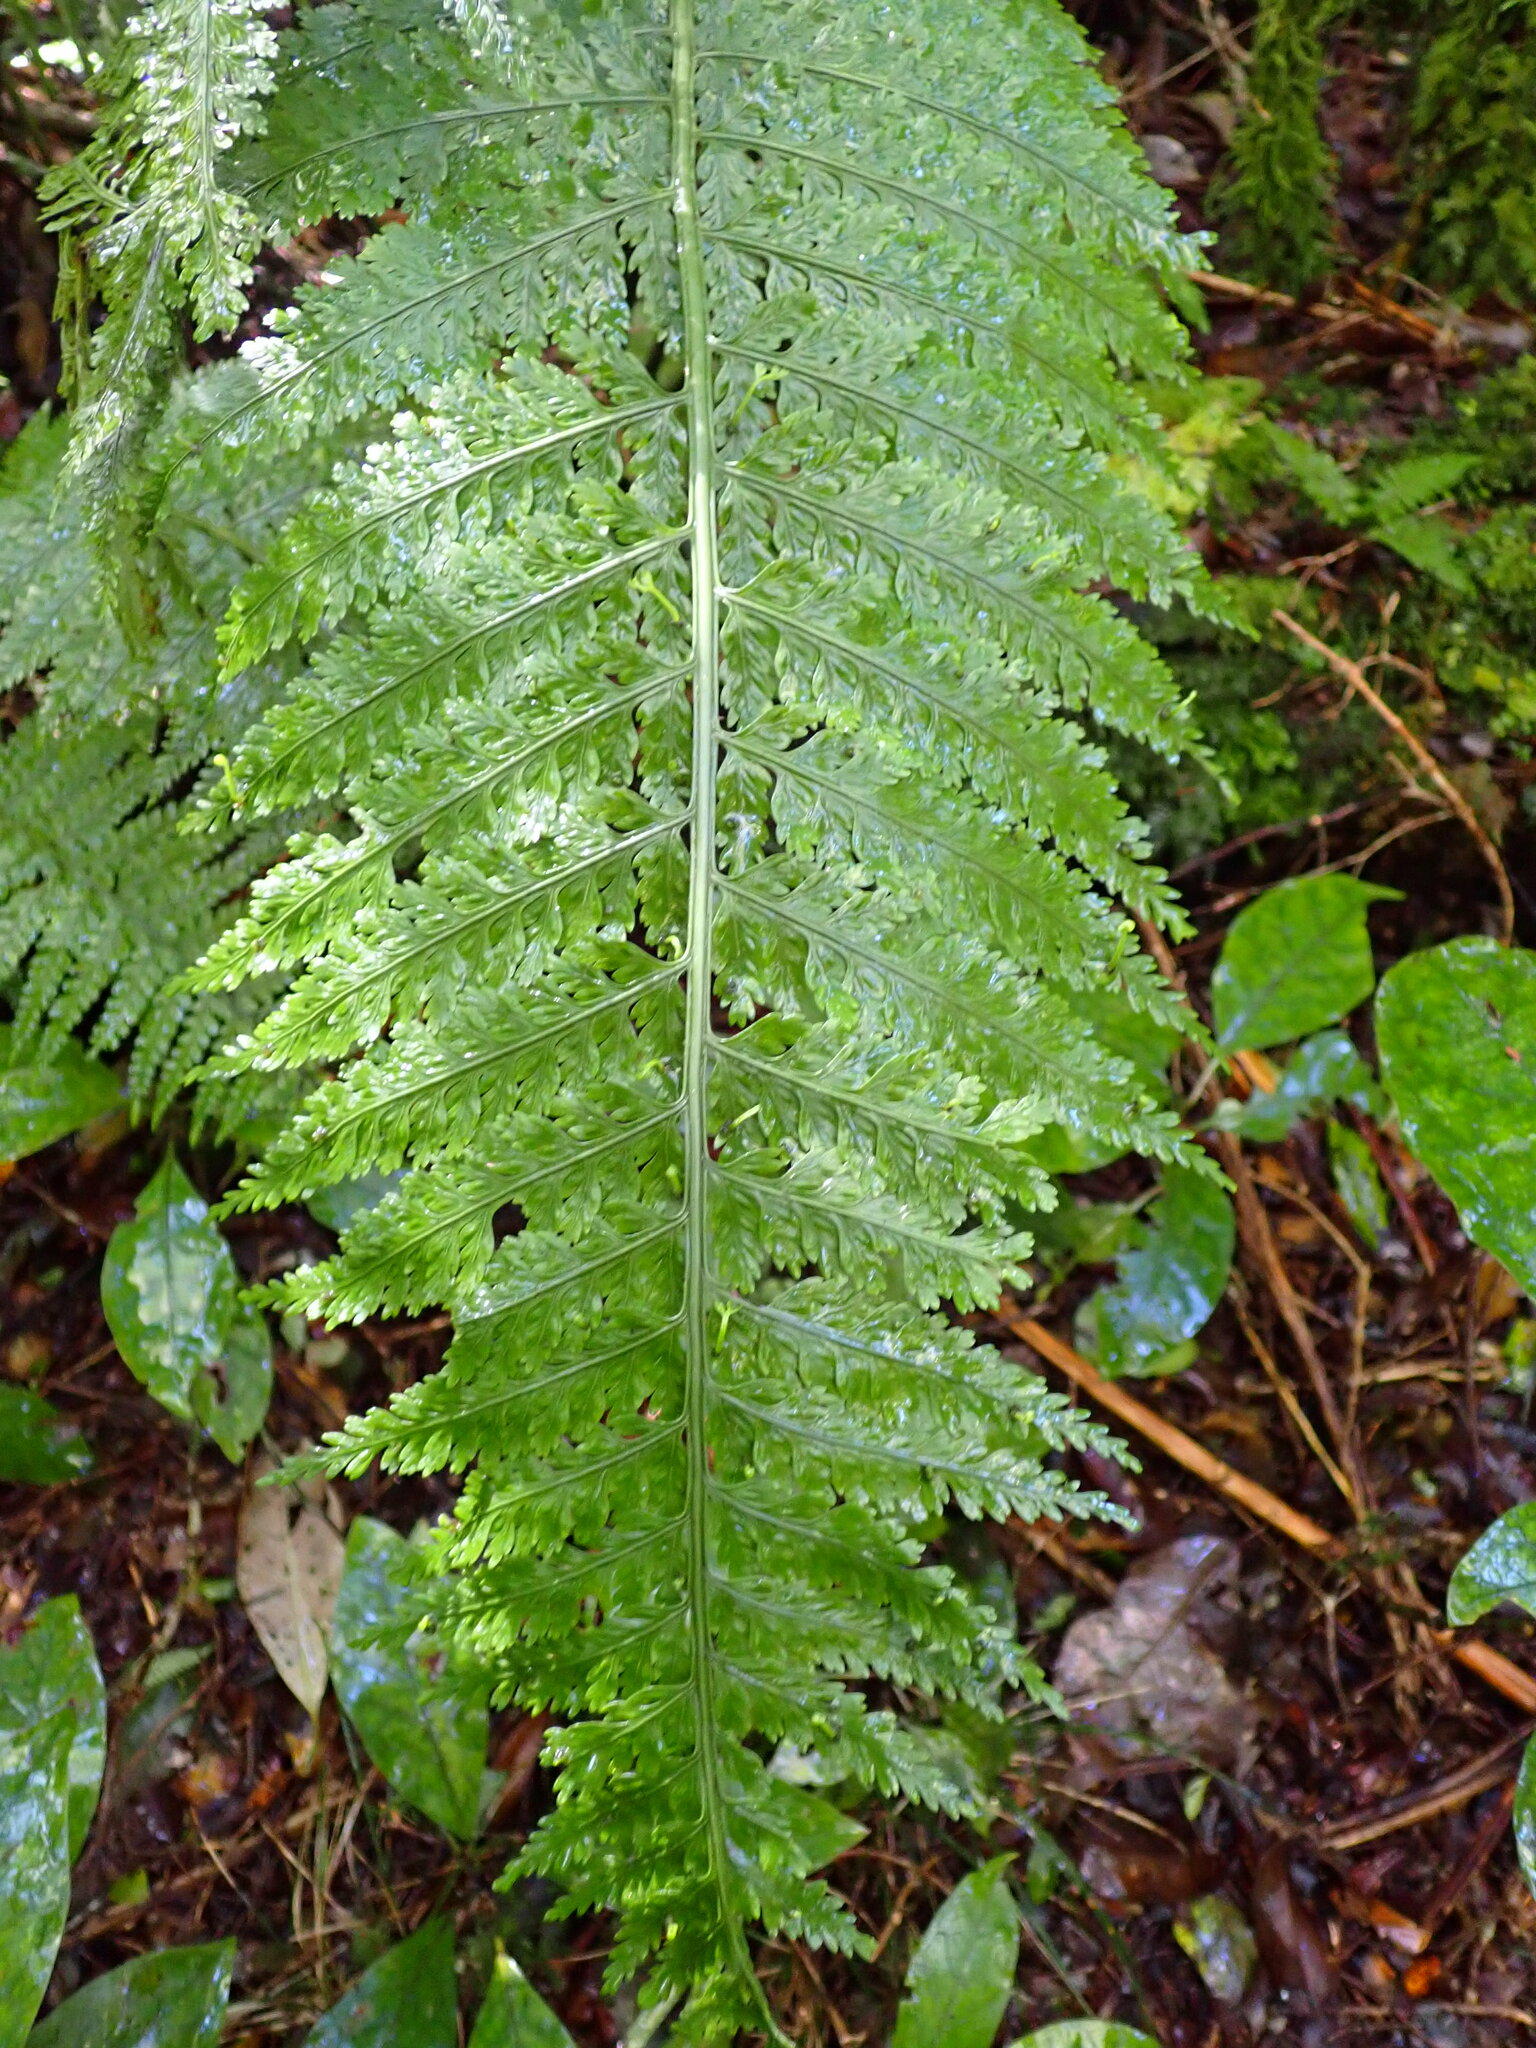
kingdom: Plantae
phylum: Tracheophyta
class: Polypodiopsida
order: Polypodiales
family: Aspleniaceae
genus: Asplenium
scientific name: Asplenium bulbiferum
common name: Mother fern
